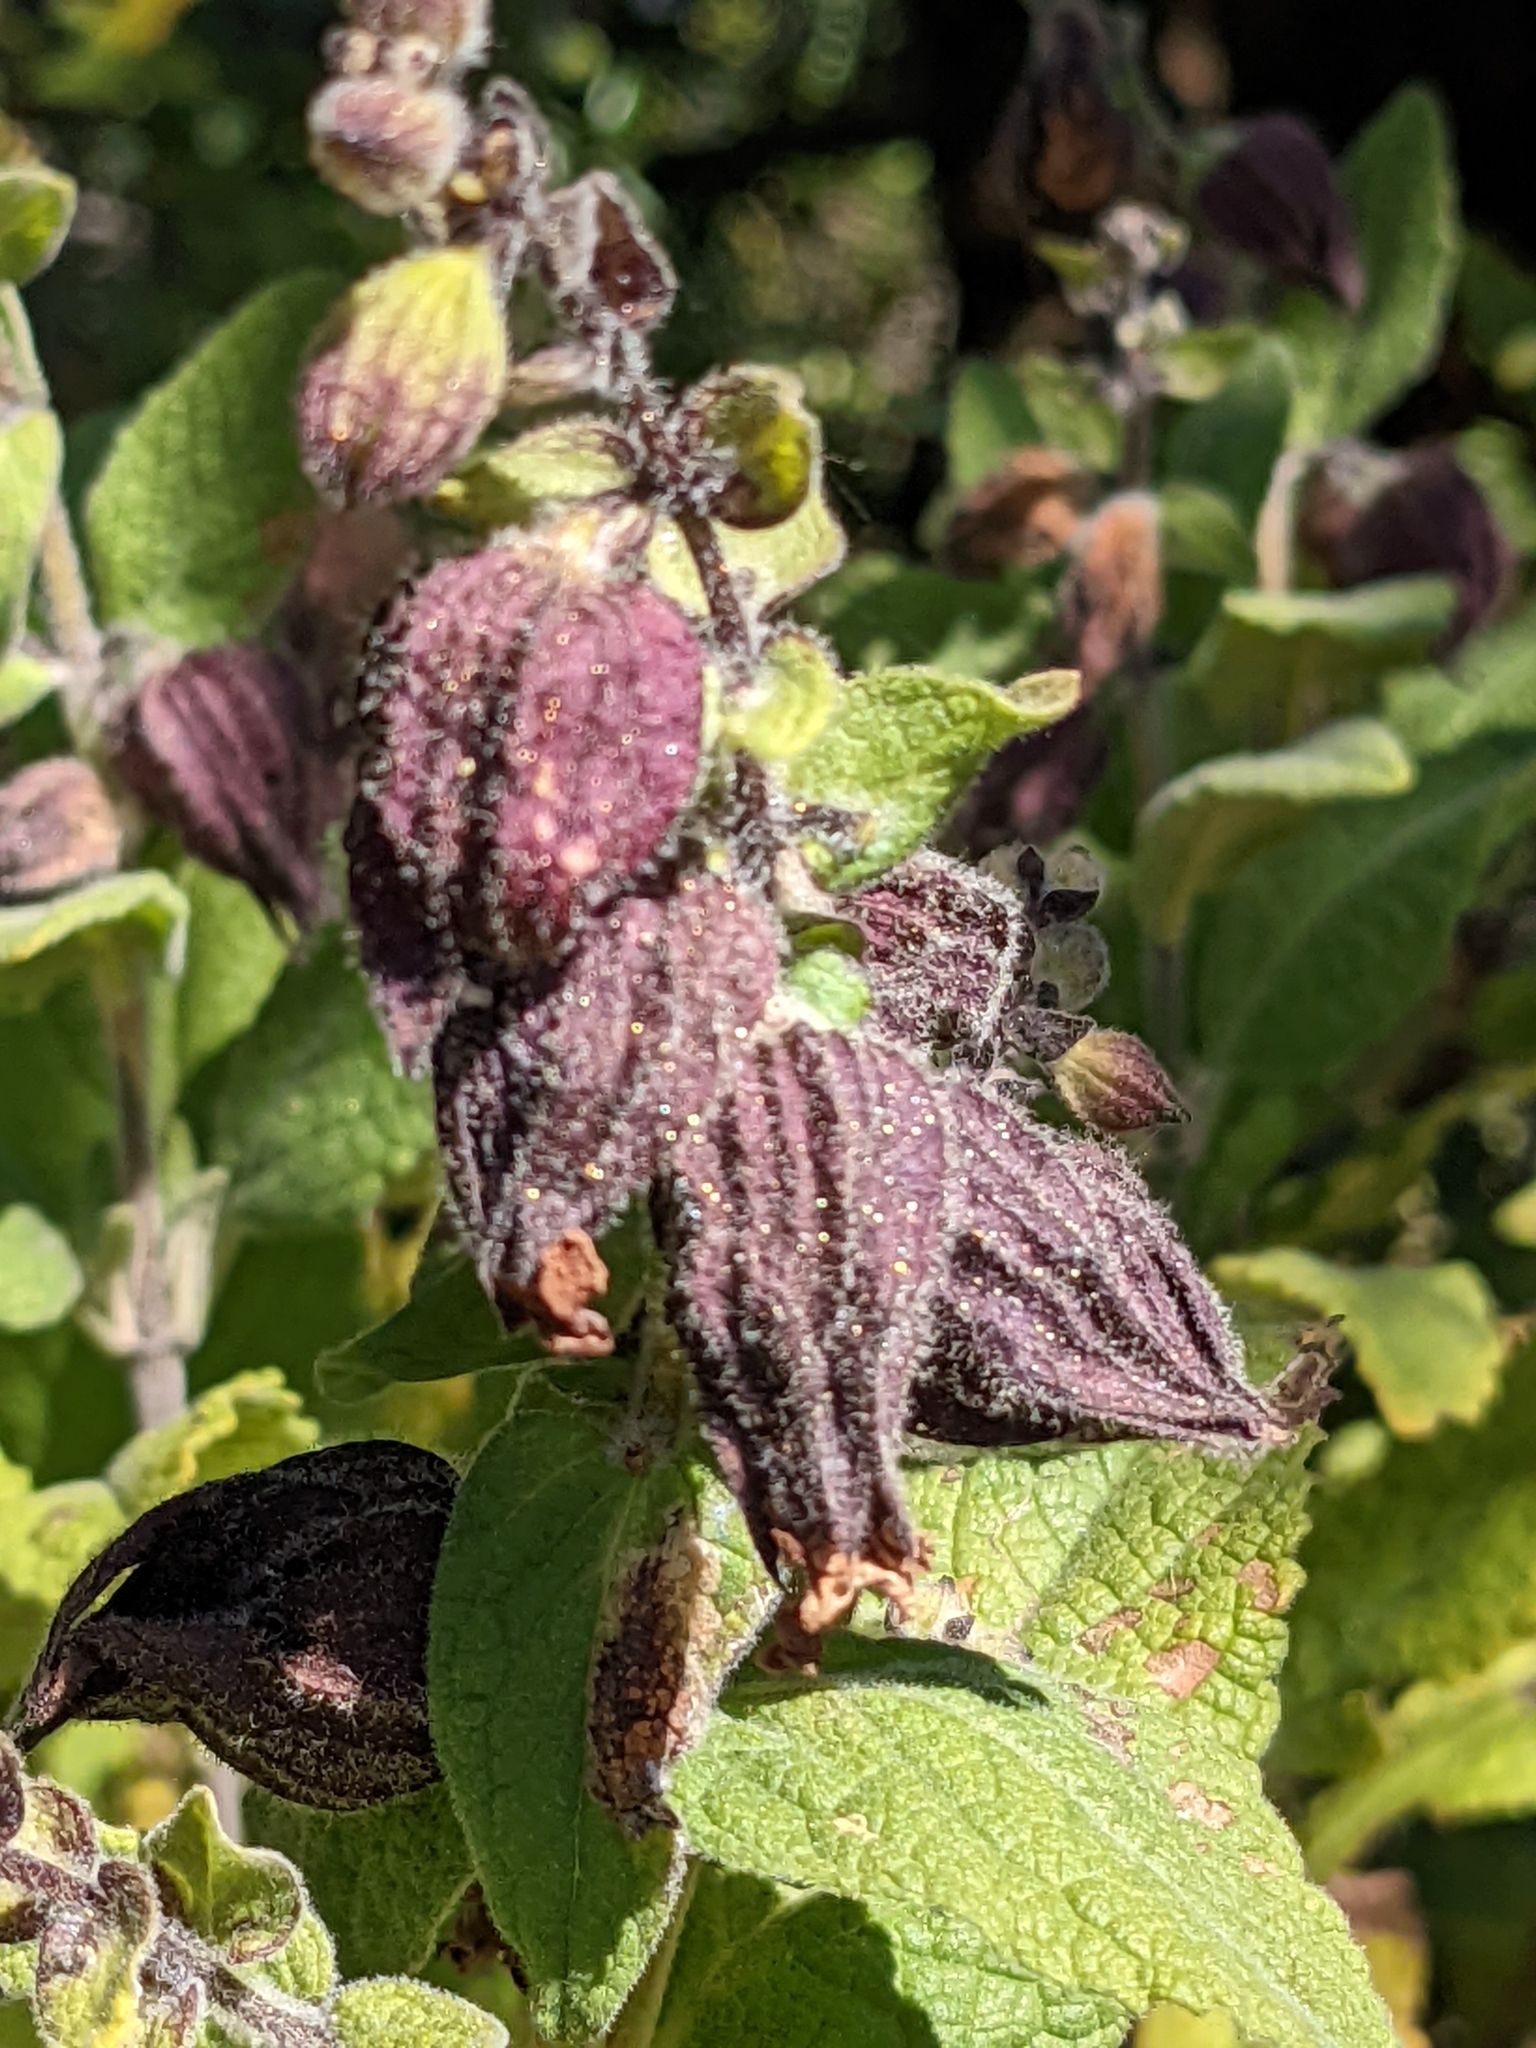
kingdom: Plantae
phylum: Tracheophyta
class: Magnoliopsida
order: Lamiales
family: Lamiaceae
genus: Lepechinia
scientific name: Lepechinia calycina
